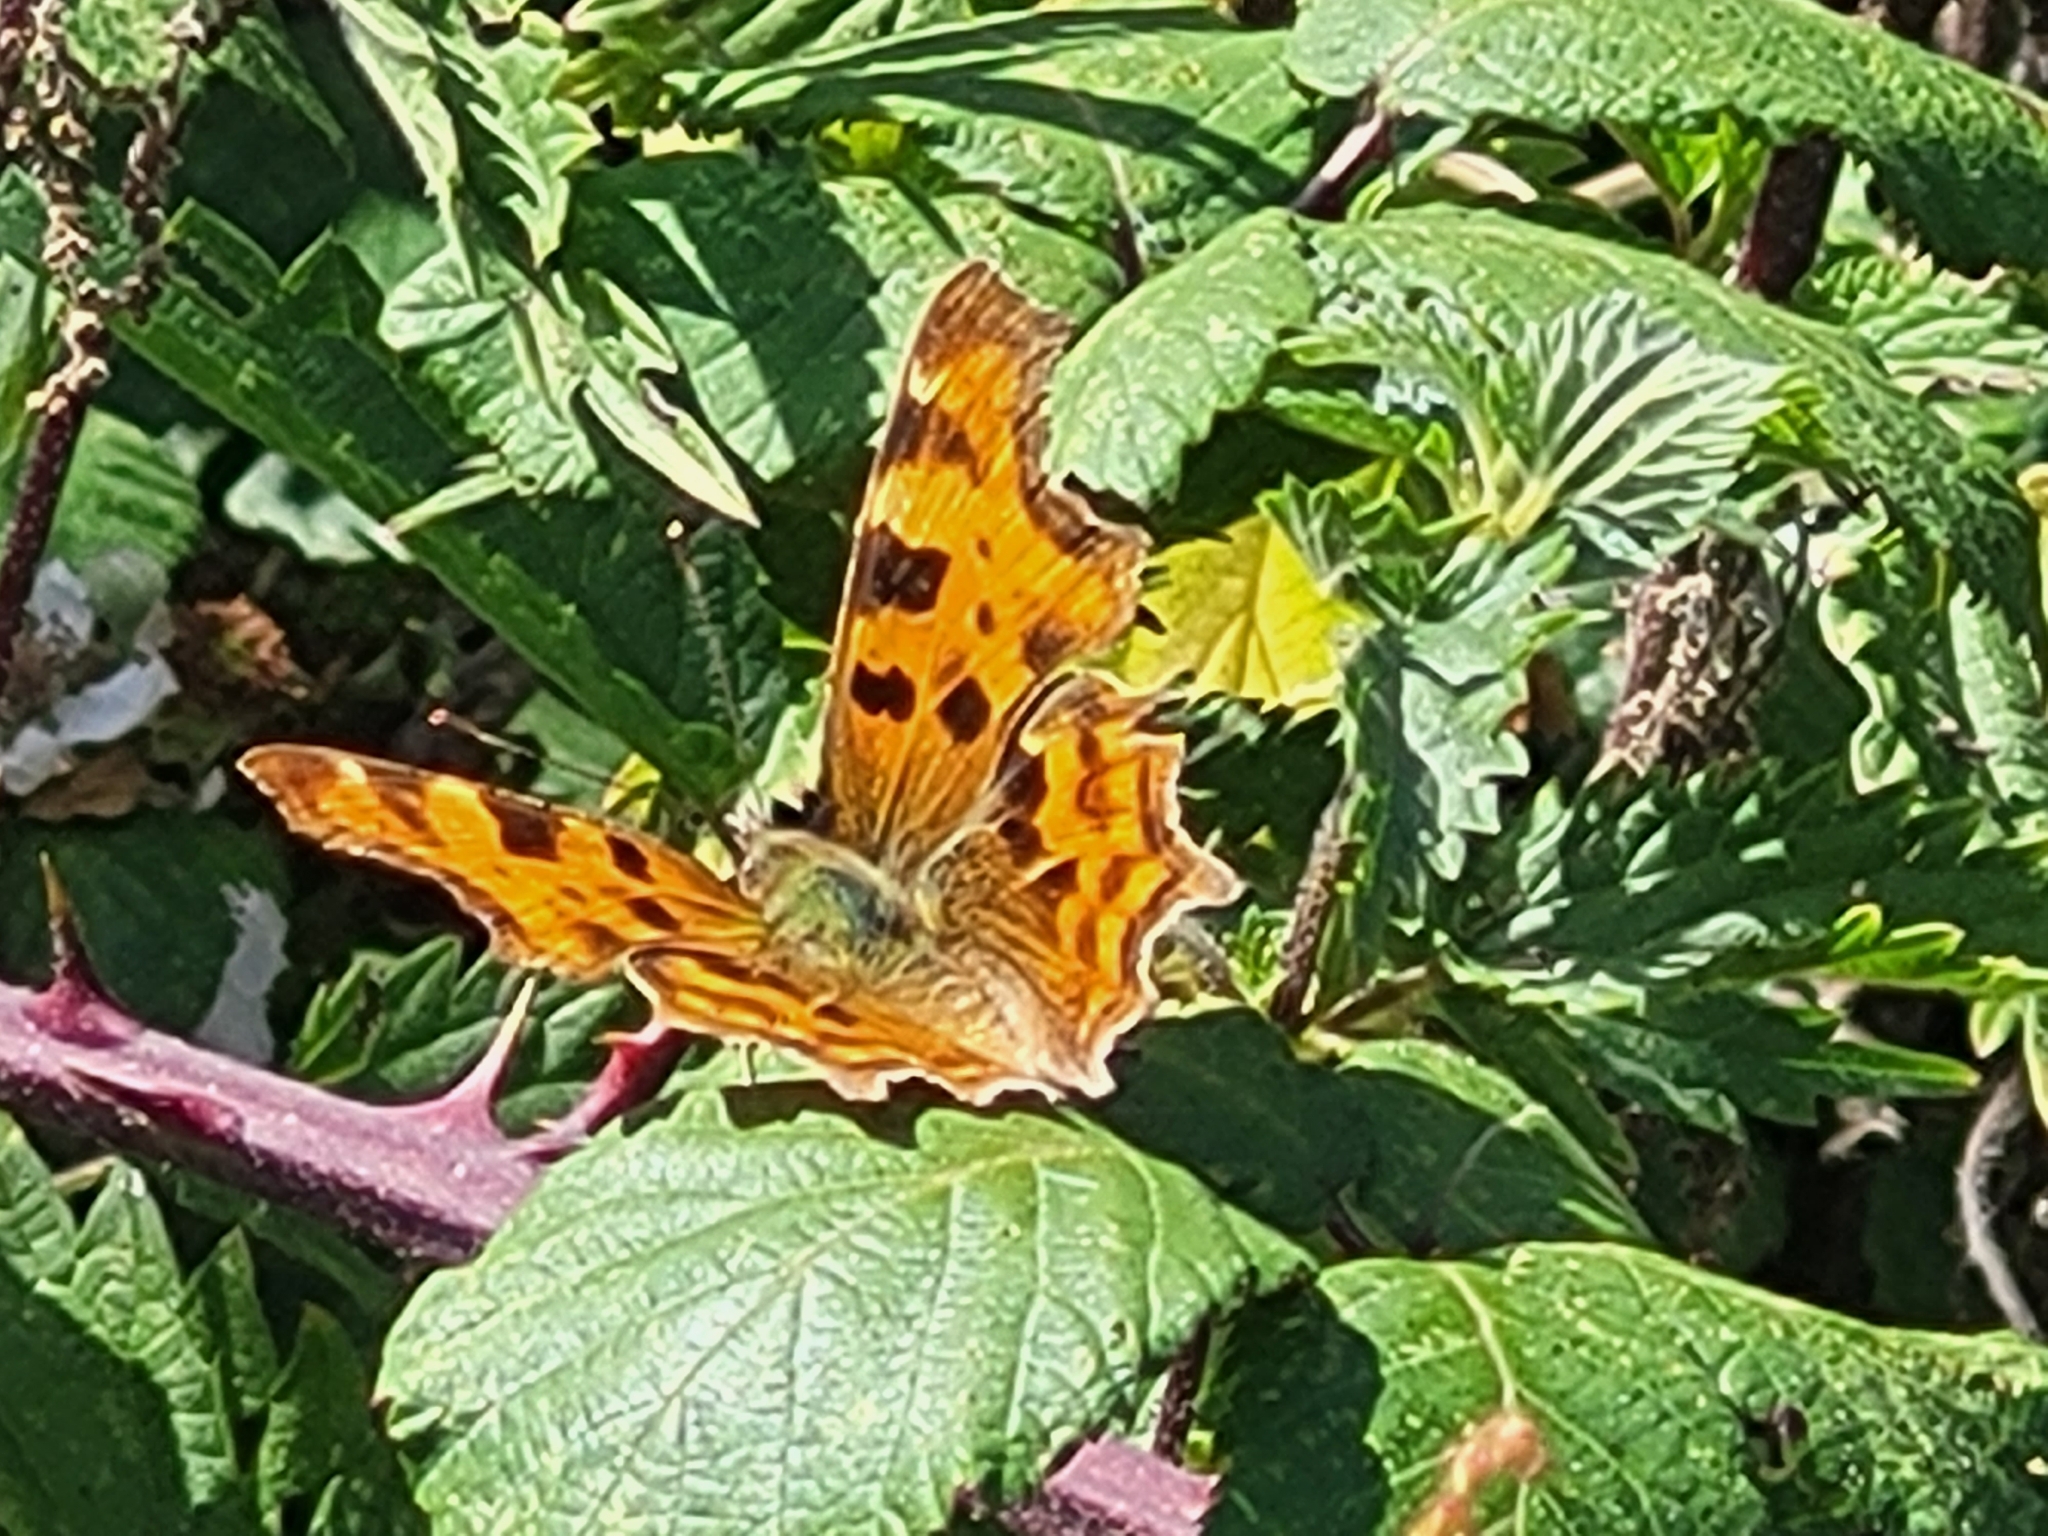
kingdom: Animalia
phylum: Arthropoda
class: Insecta
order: Lepidoptera
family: Nymphalidae
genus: Polygonia
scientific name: Polygonia c-album
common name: Comma
